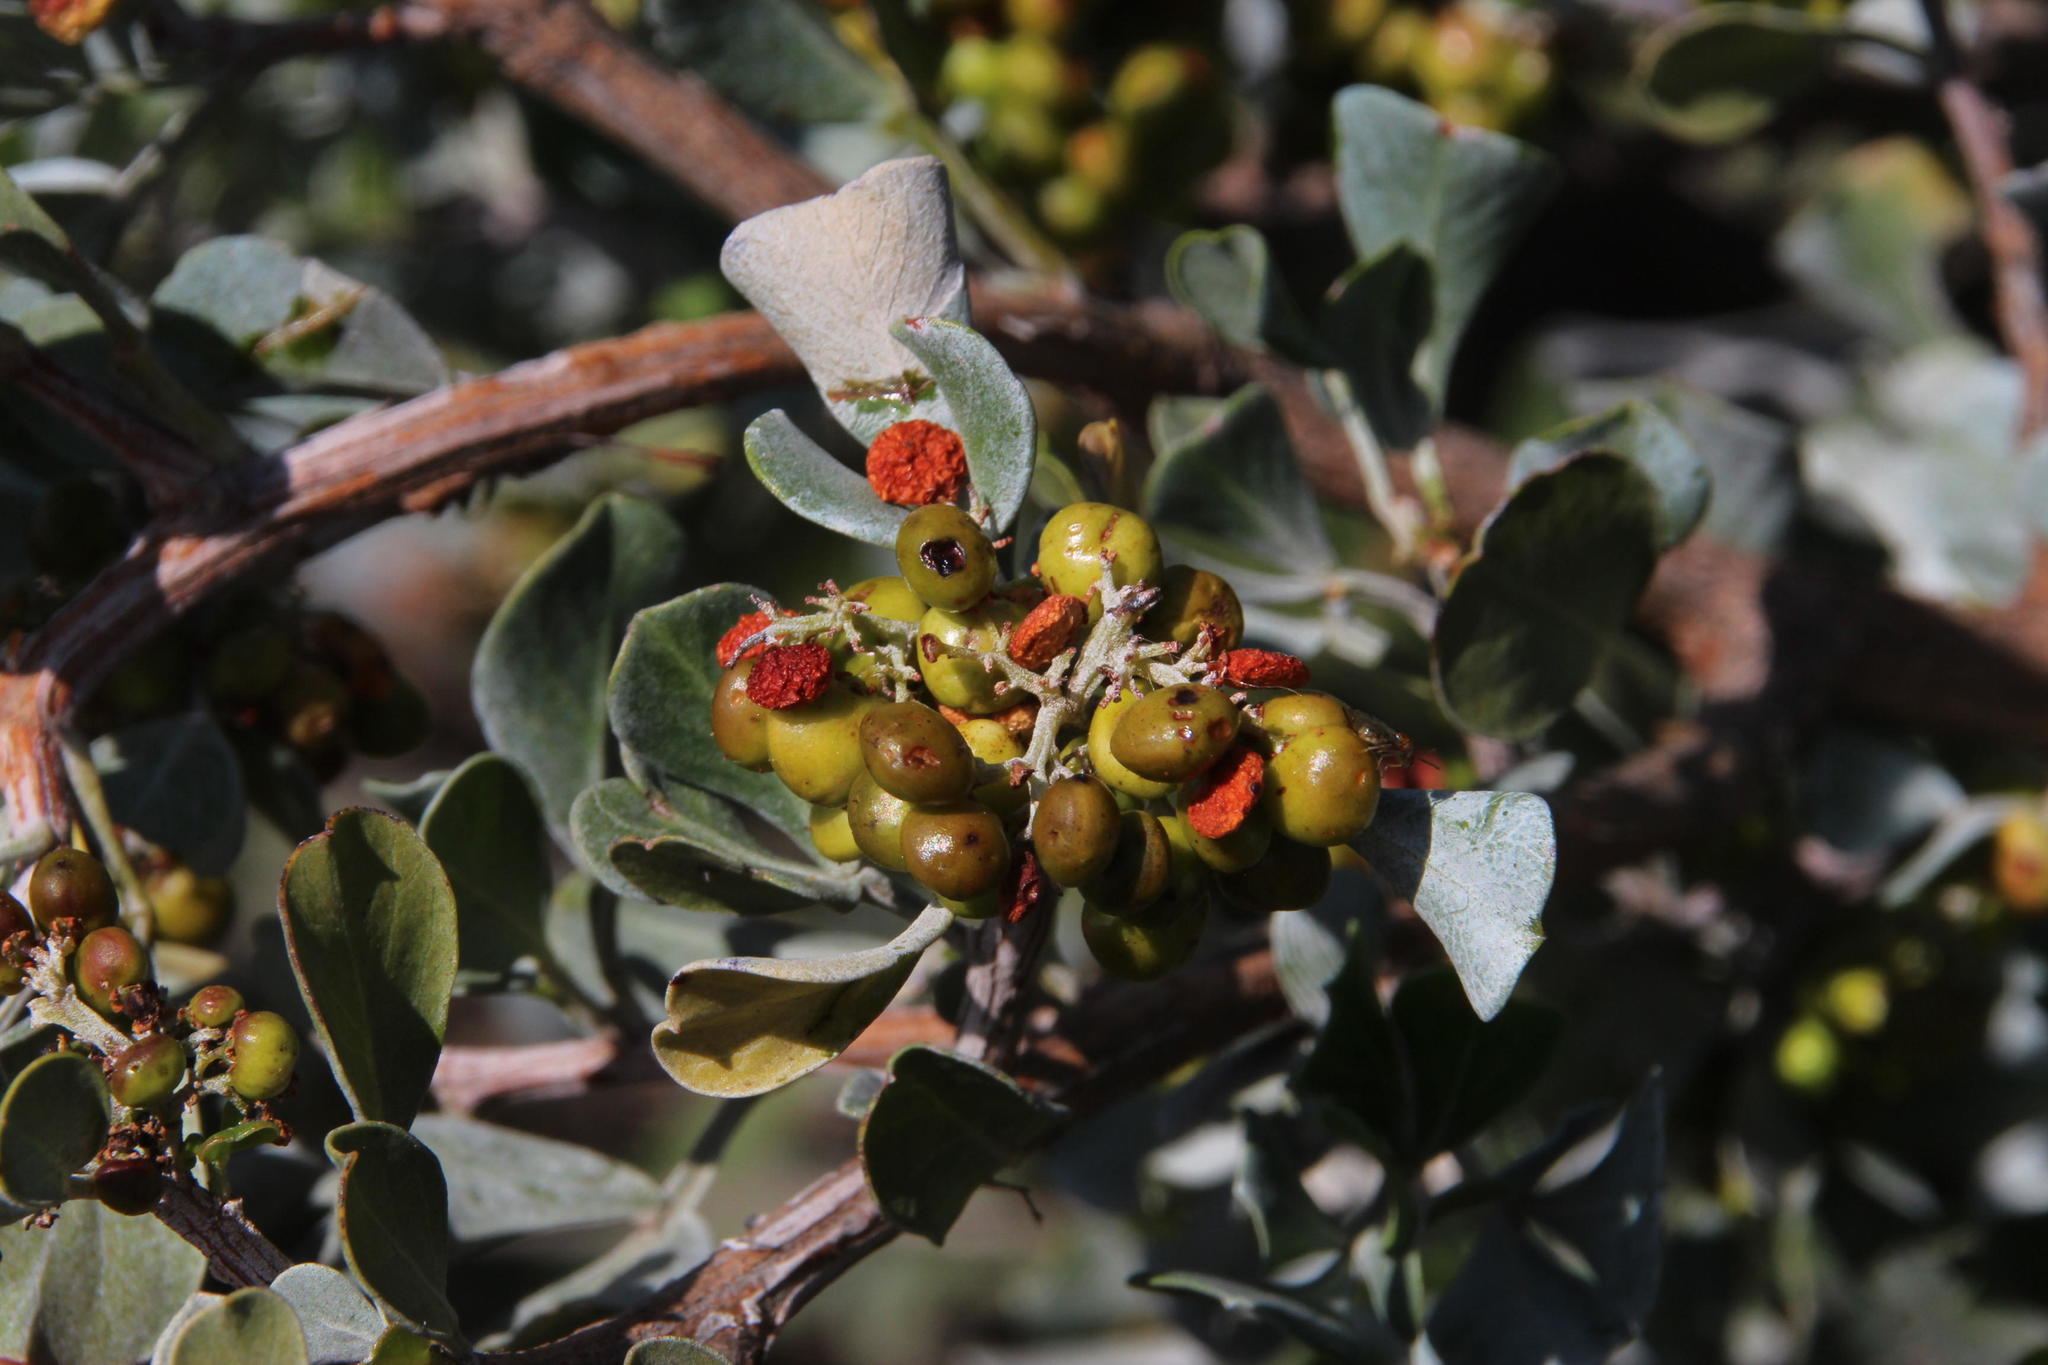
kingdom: Plantae
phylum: Tracheophyta
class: Magnoliopsida
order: Sapindales
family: Anacardiaceae
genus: Searsia
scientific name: Searsia glauca
